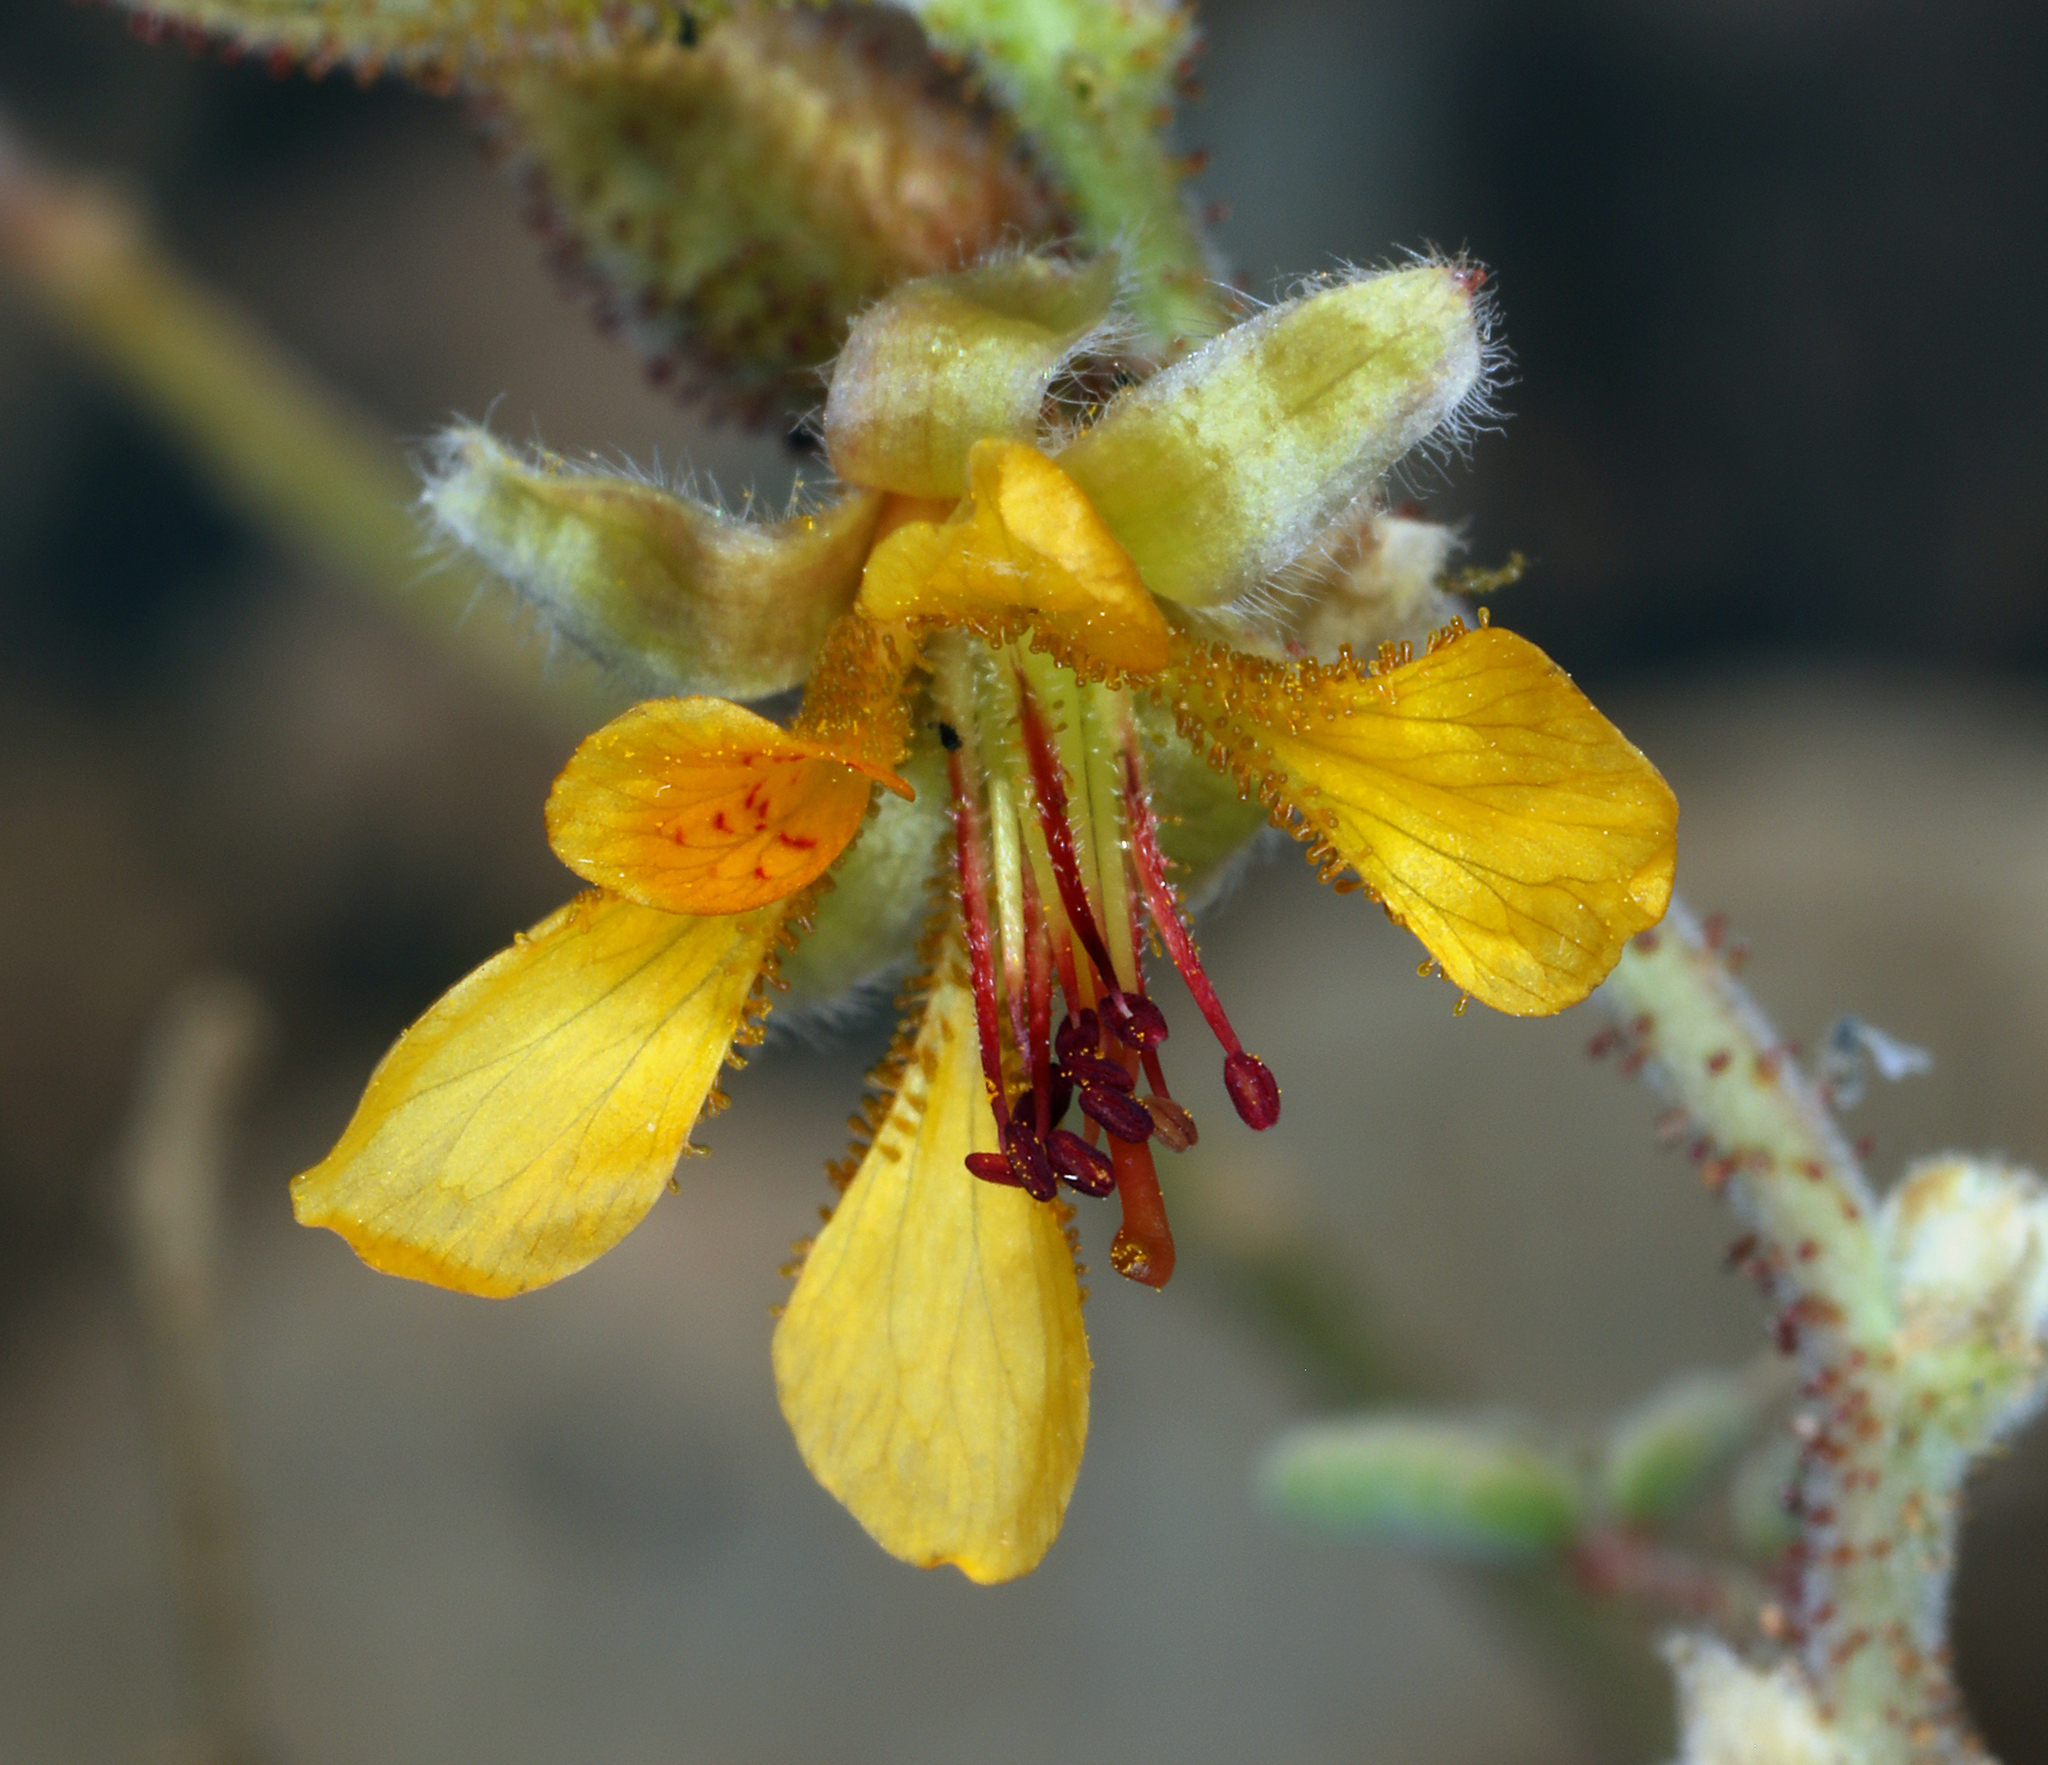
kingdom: Plantae
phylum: Tracheophyta
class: Magnoliopsida
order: Fabales
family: Fabaceae
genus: Hoffmannseggia
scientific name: Hoffmannseggia glauca
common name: Pignut
